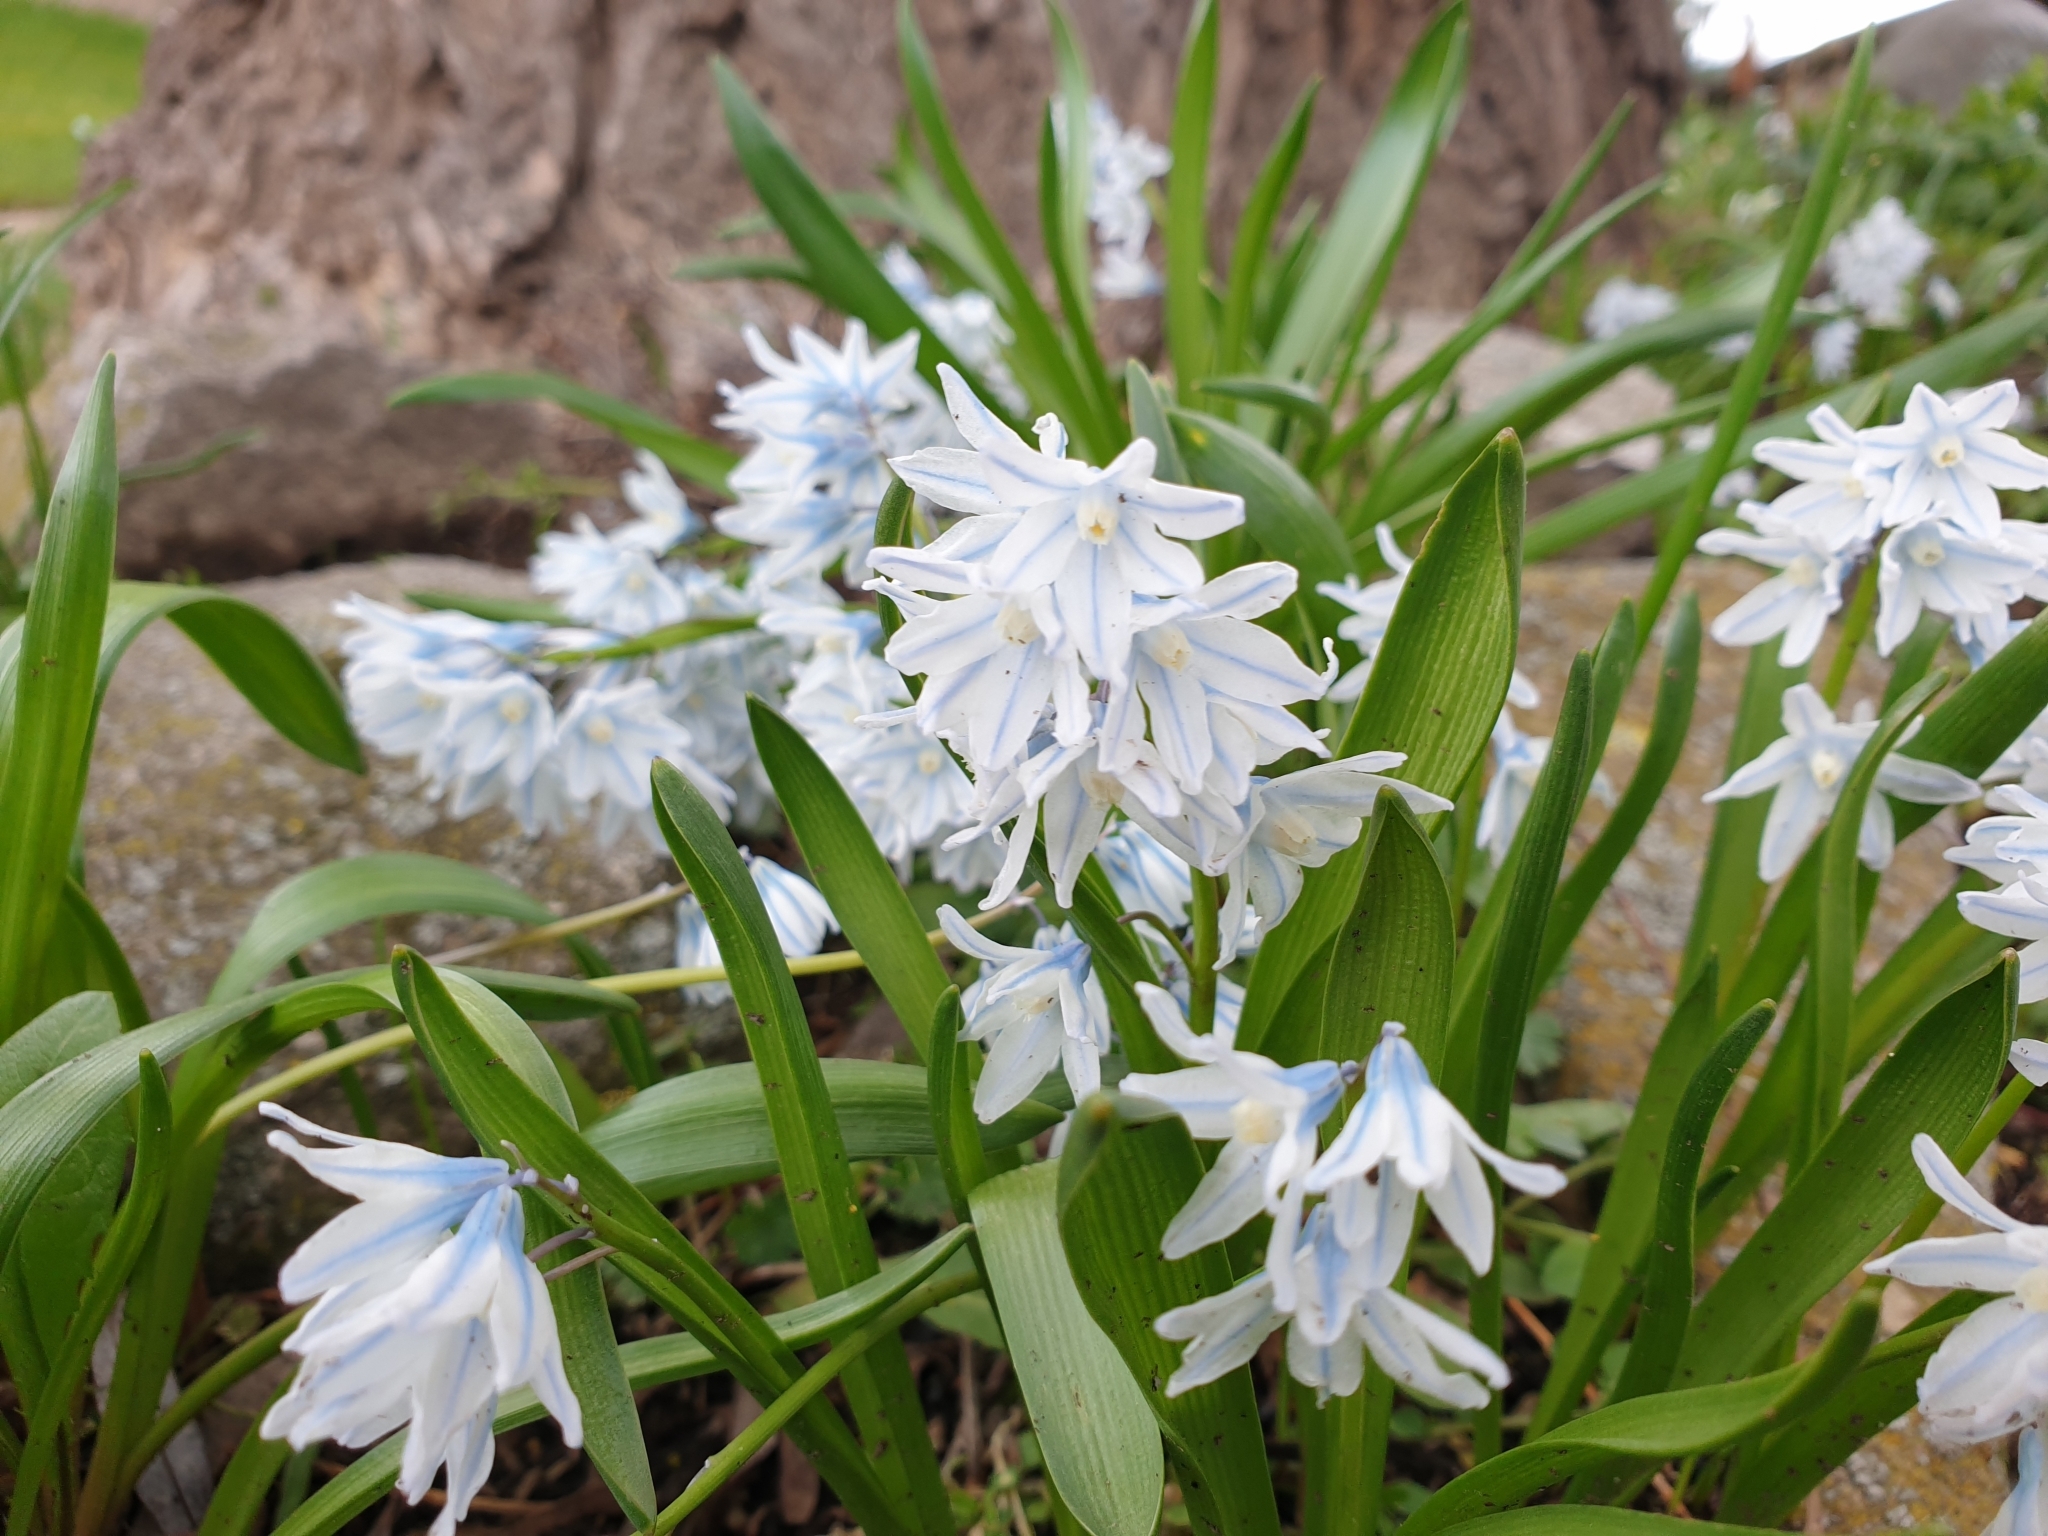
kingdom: Plantae
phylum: Tracheophyta
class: Liliopsida
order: Asparagales
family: Asparagaceae
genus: Puschkinia
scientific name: Puschkinia scilloides
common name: Striped squill
